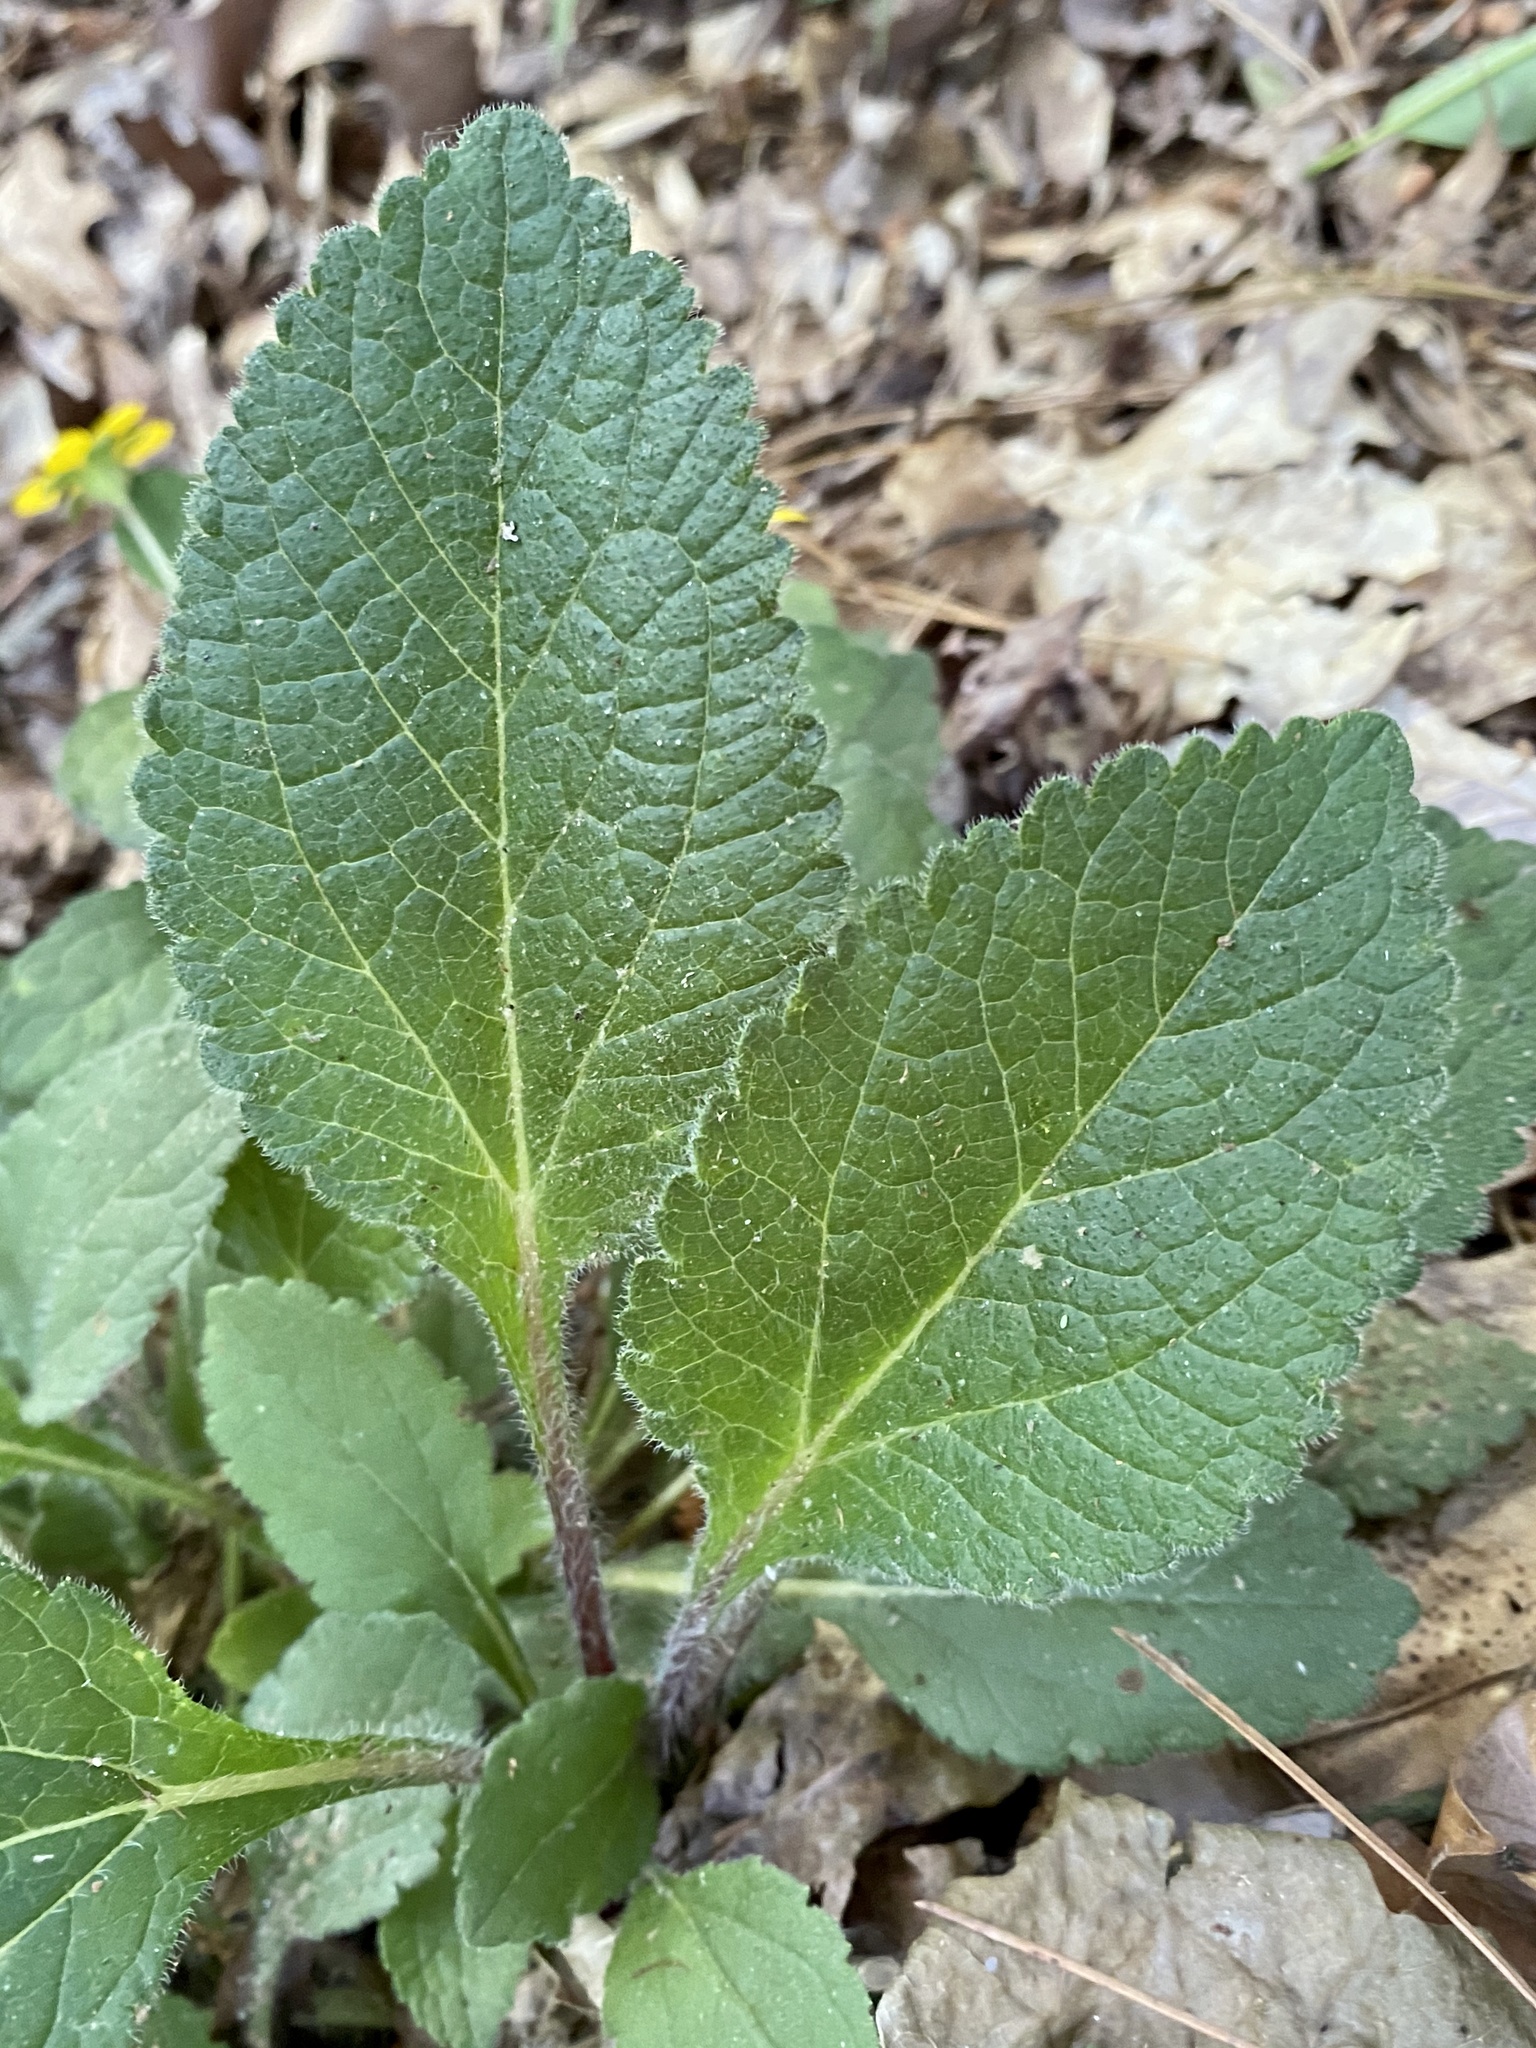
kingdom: Plantae
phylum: Tracheophyta
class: Magnoliopsida
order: Asterales
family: Asteraceae
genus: Chrysogonum
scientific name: Chrysogonum virginianum
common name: Golden-knee
